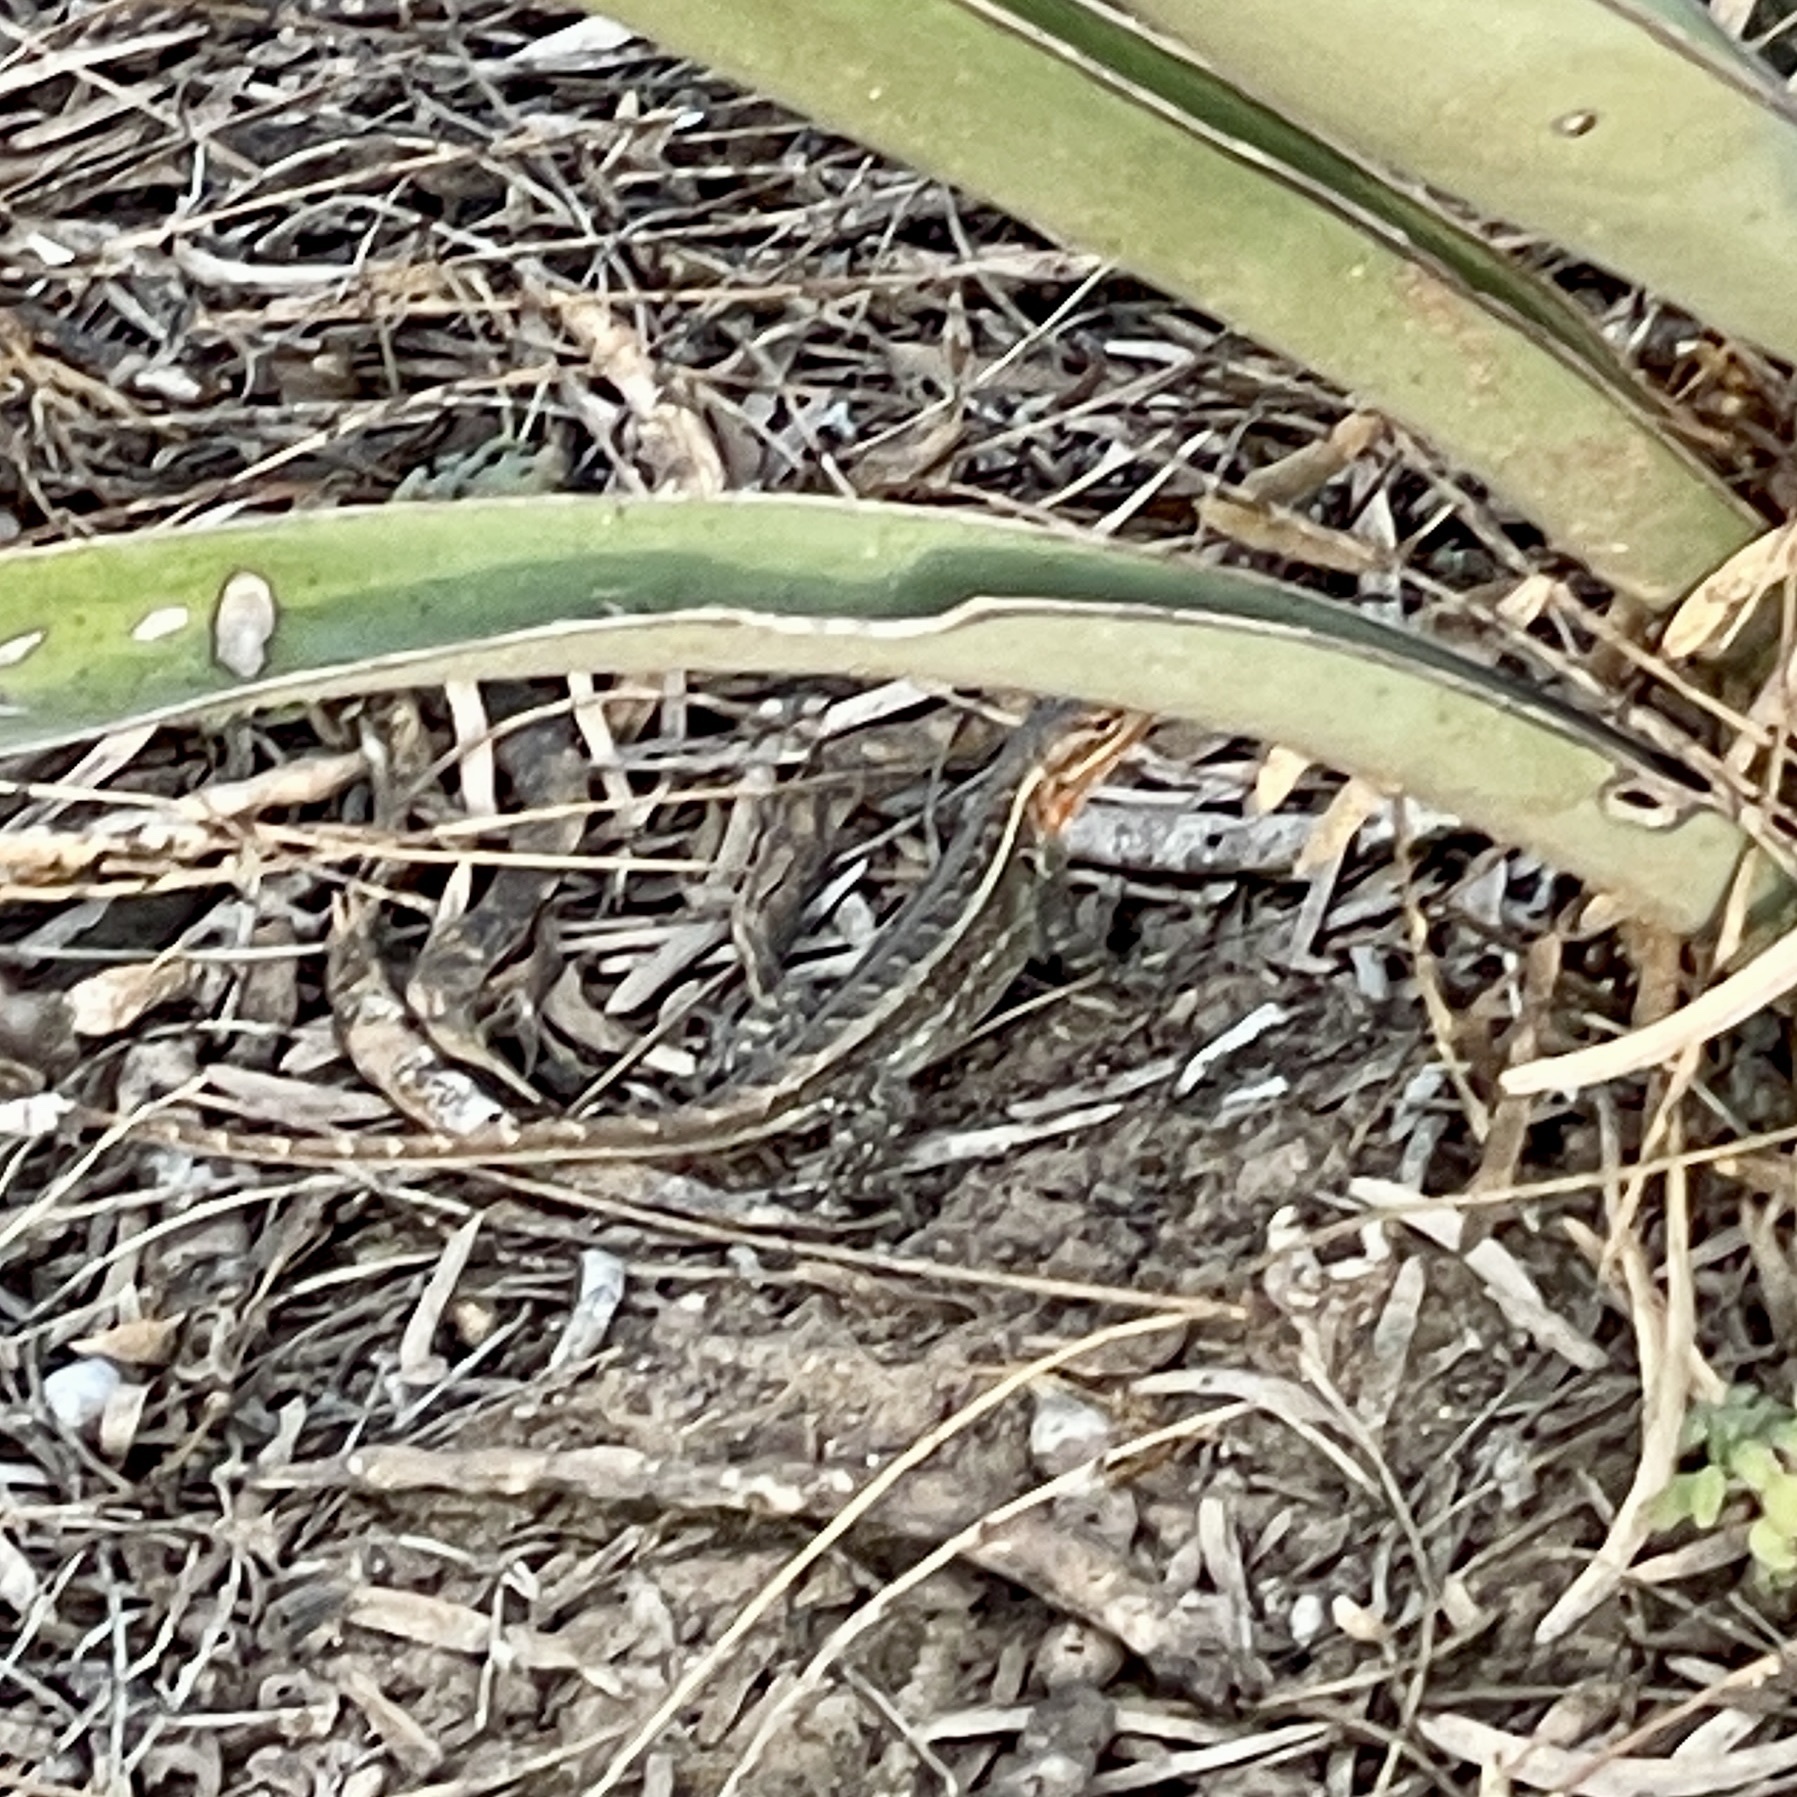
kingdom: Animalia
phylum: Chordata
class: Squamata
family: Phrynosomatidae
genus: Sceloporus
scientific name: Sceloporus variabilis
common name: Rosebelly lizard
